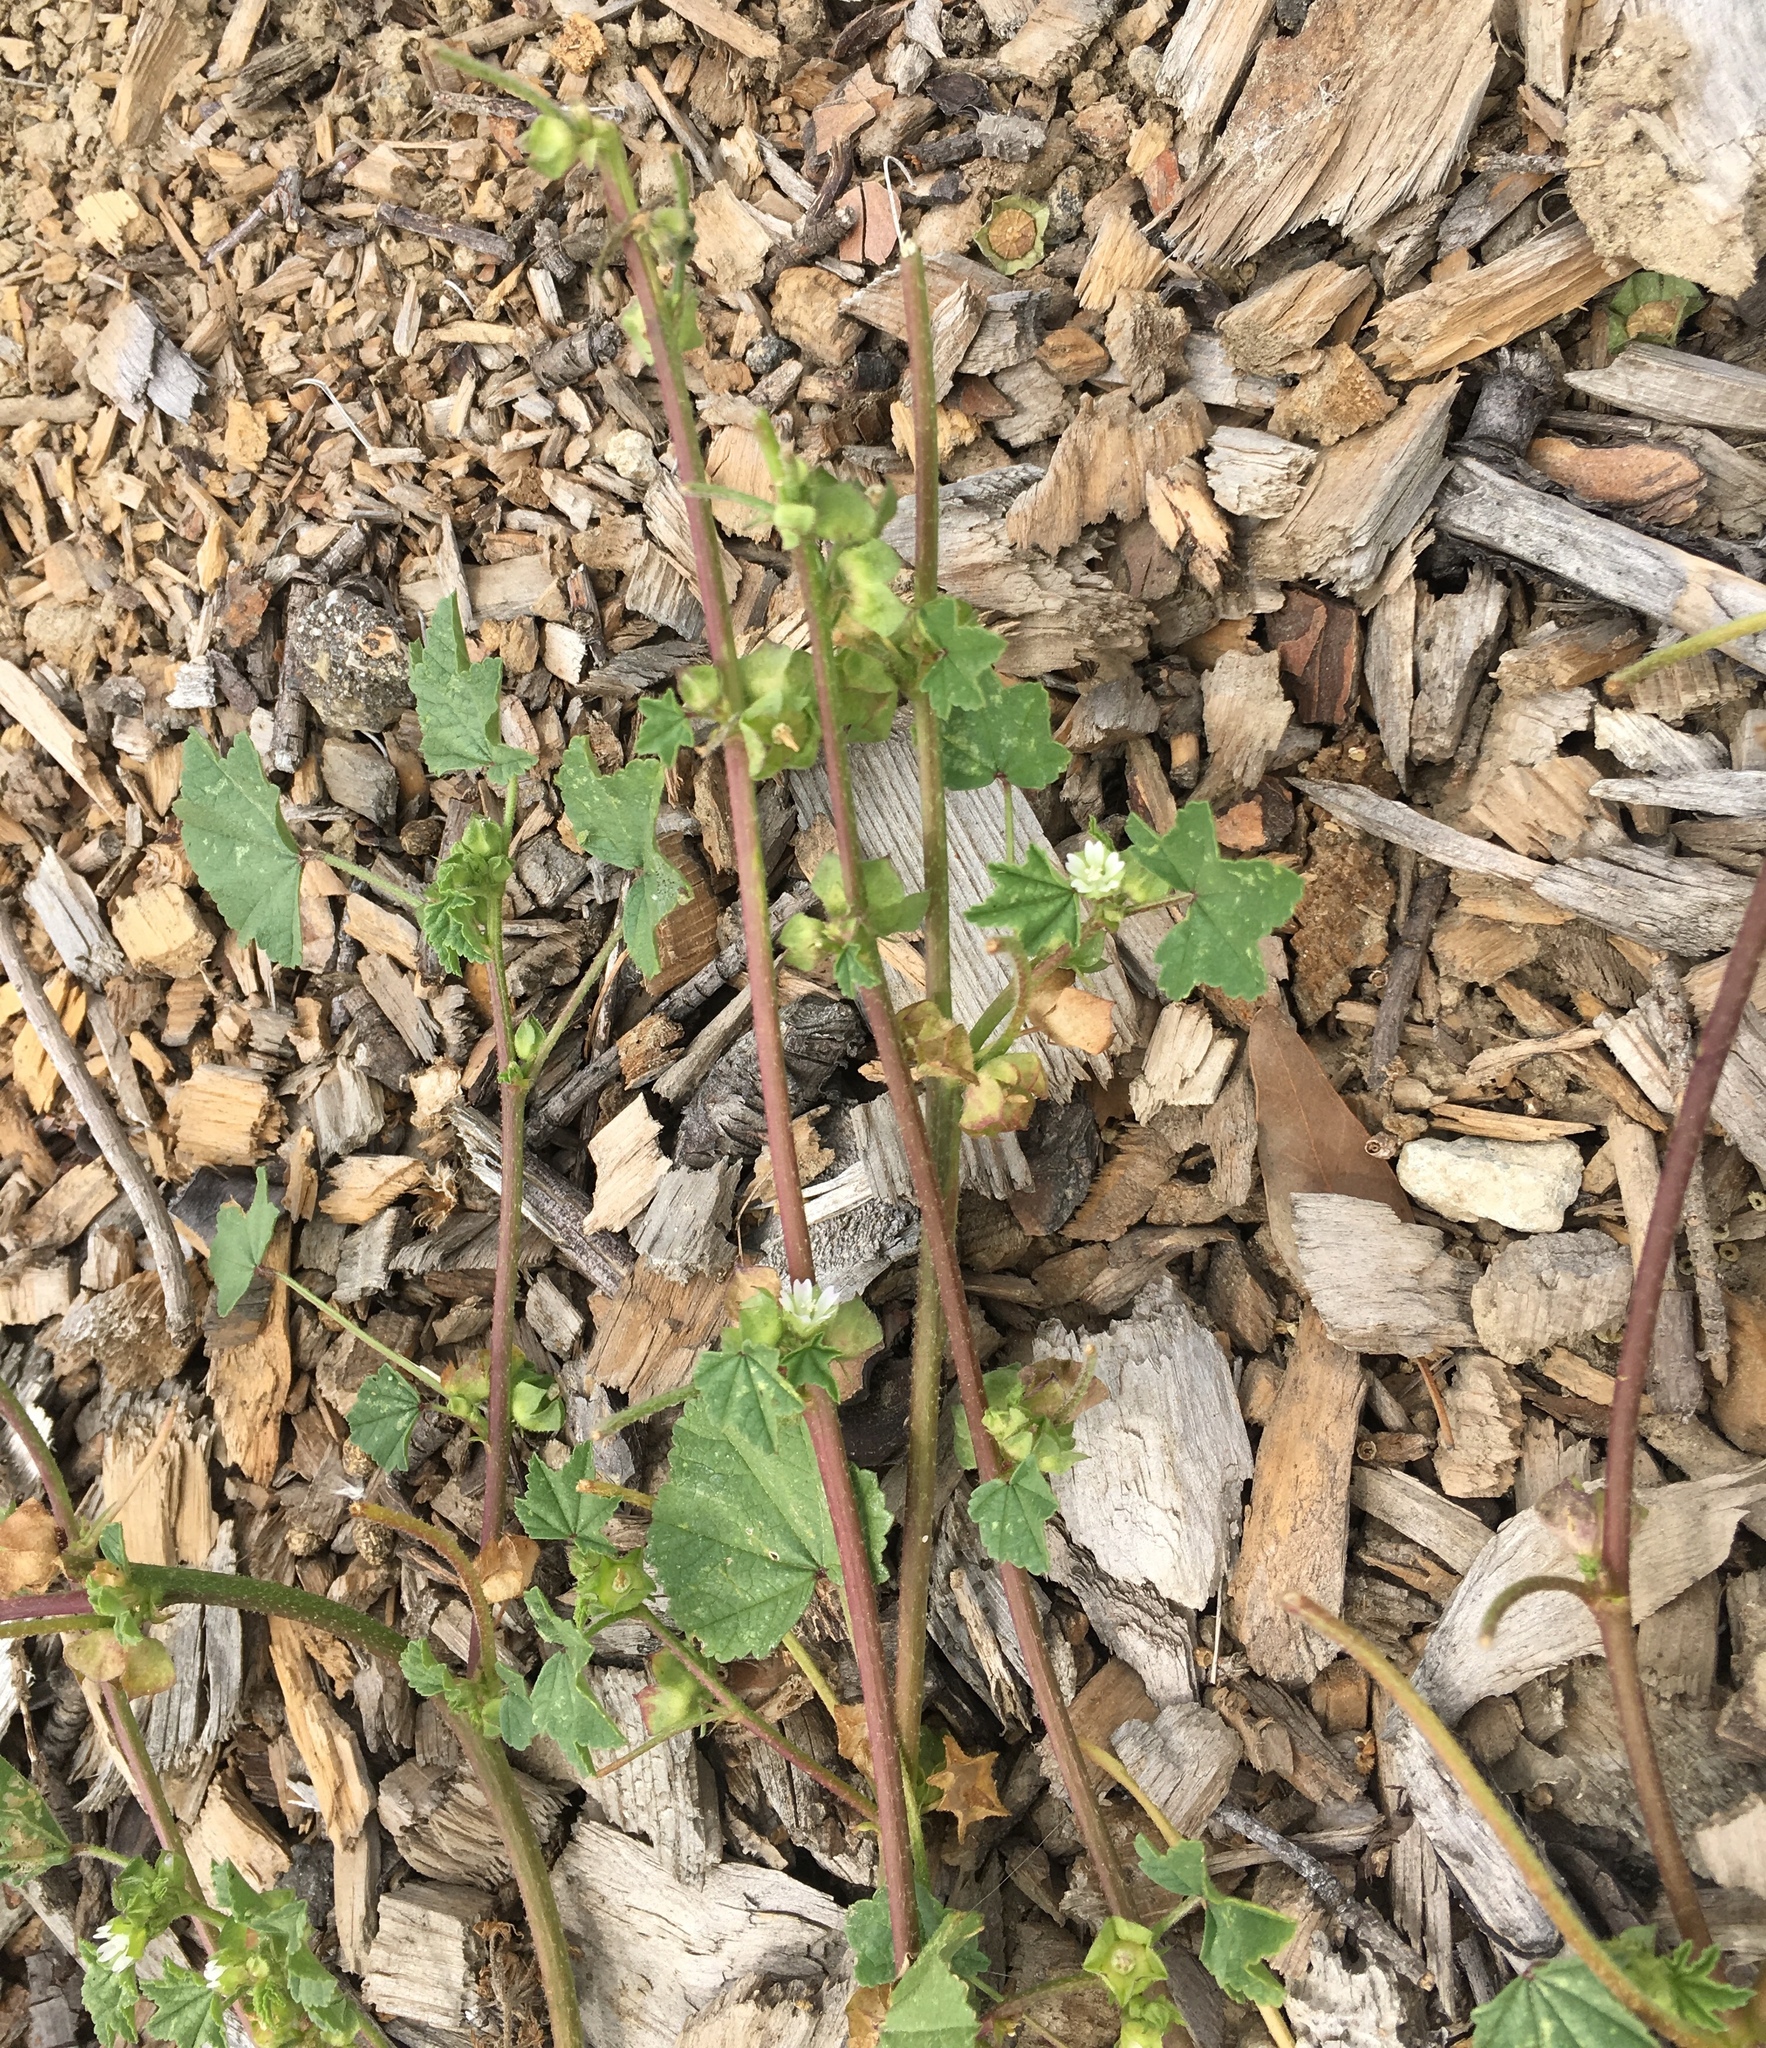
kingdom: Plantae
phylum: Tracheophyta
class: Magnoliopsida
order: Malvales
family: Malvaceae
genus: Malva
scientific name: Malva parviflora
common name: Least mallow
